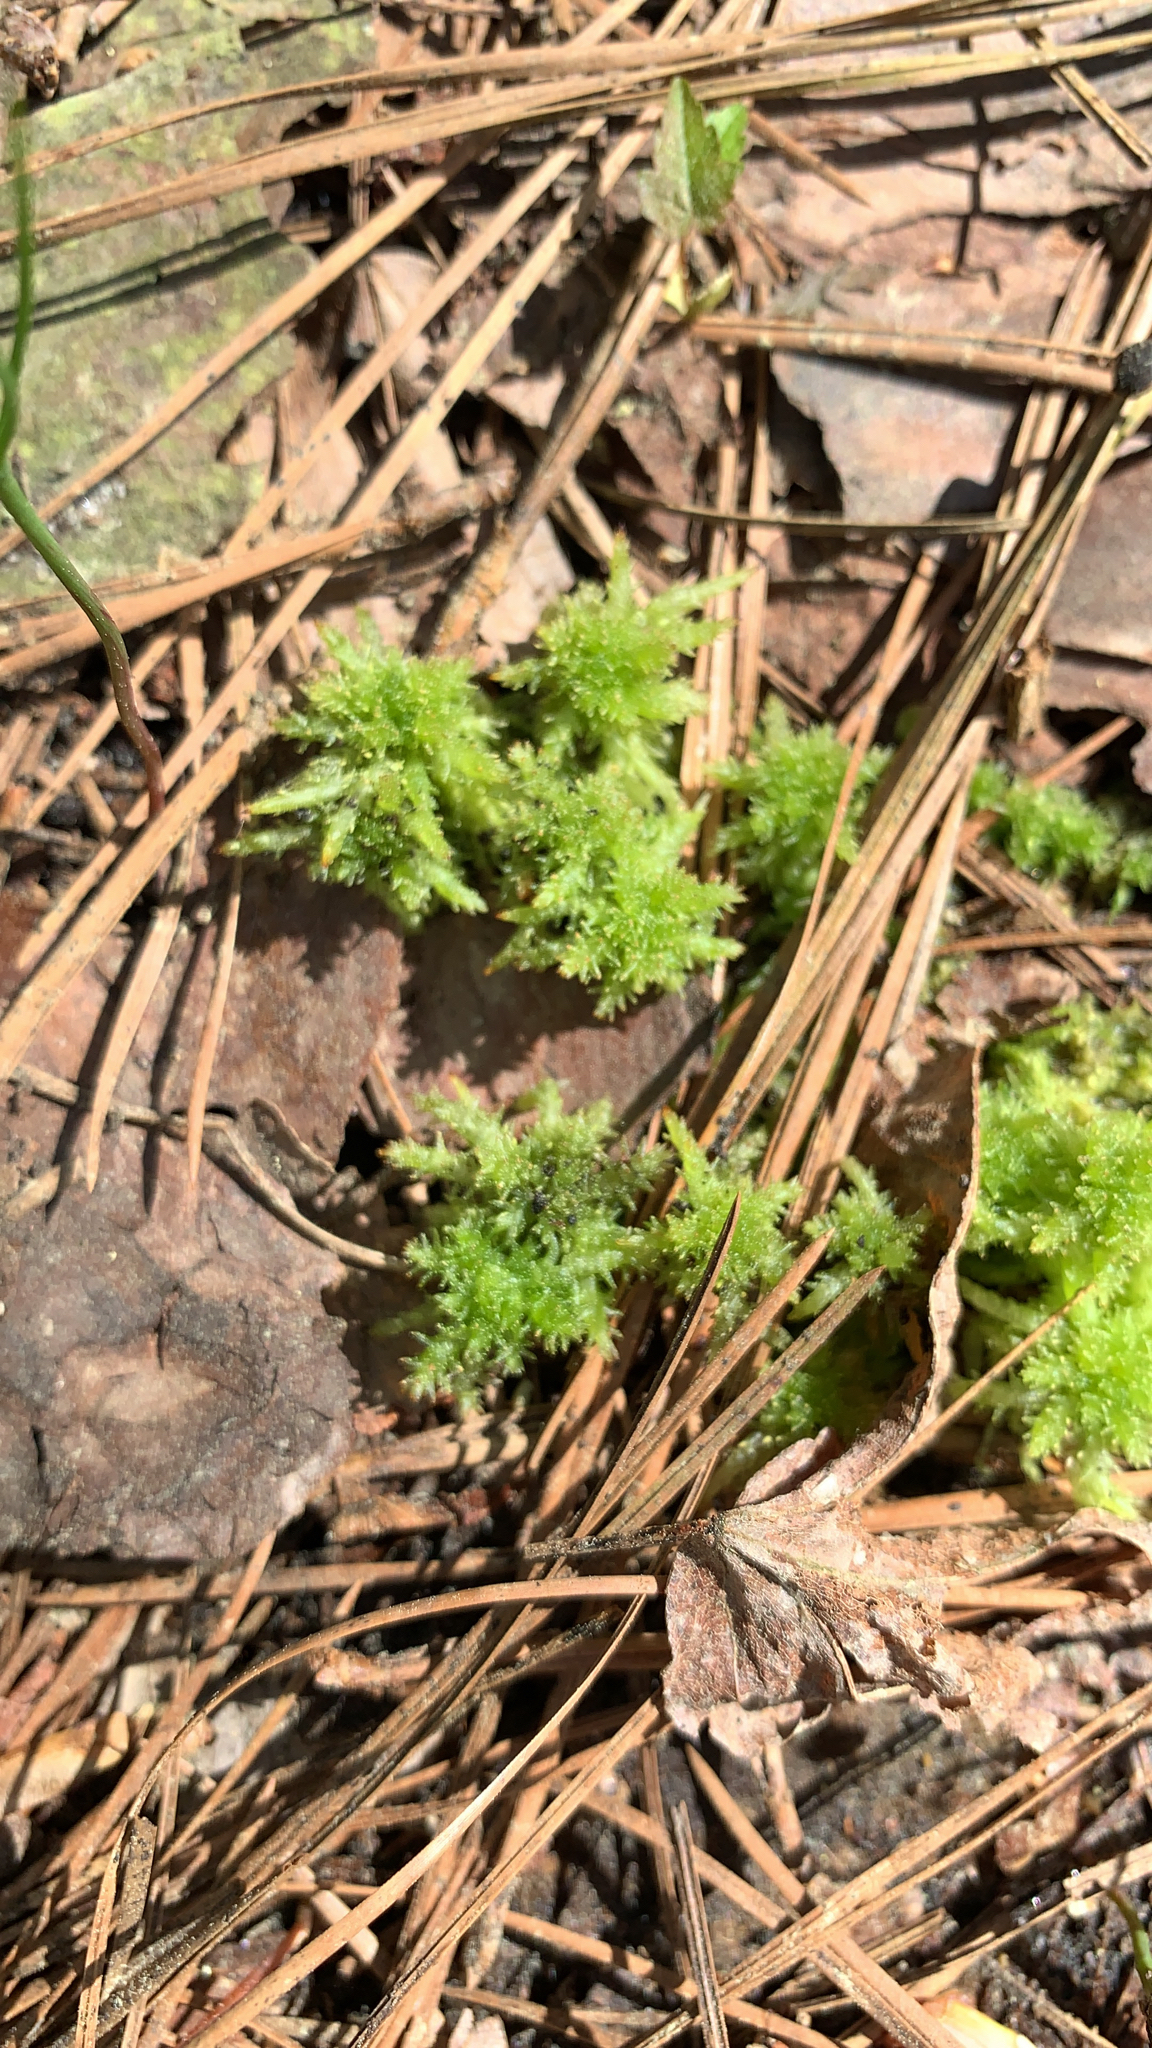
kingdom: Plantae
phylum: Bryophyta
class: Sphagnopsida
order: Sphagnales
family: Sphagnaceae
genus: Sphagnum
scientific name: Sphagnum squarrosum
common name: Shaggy peat moss
